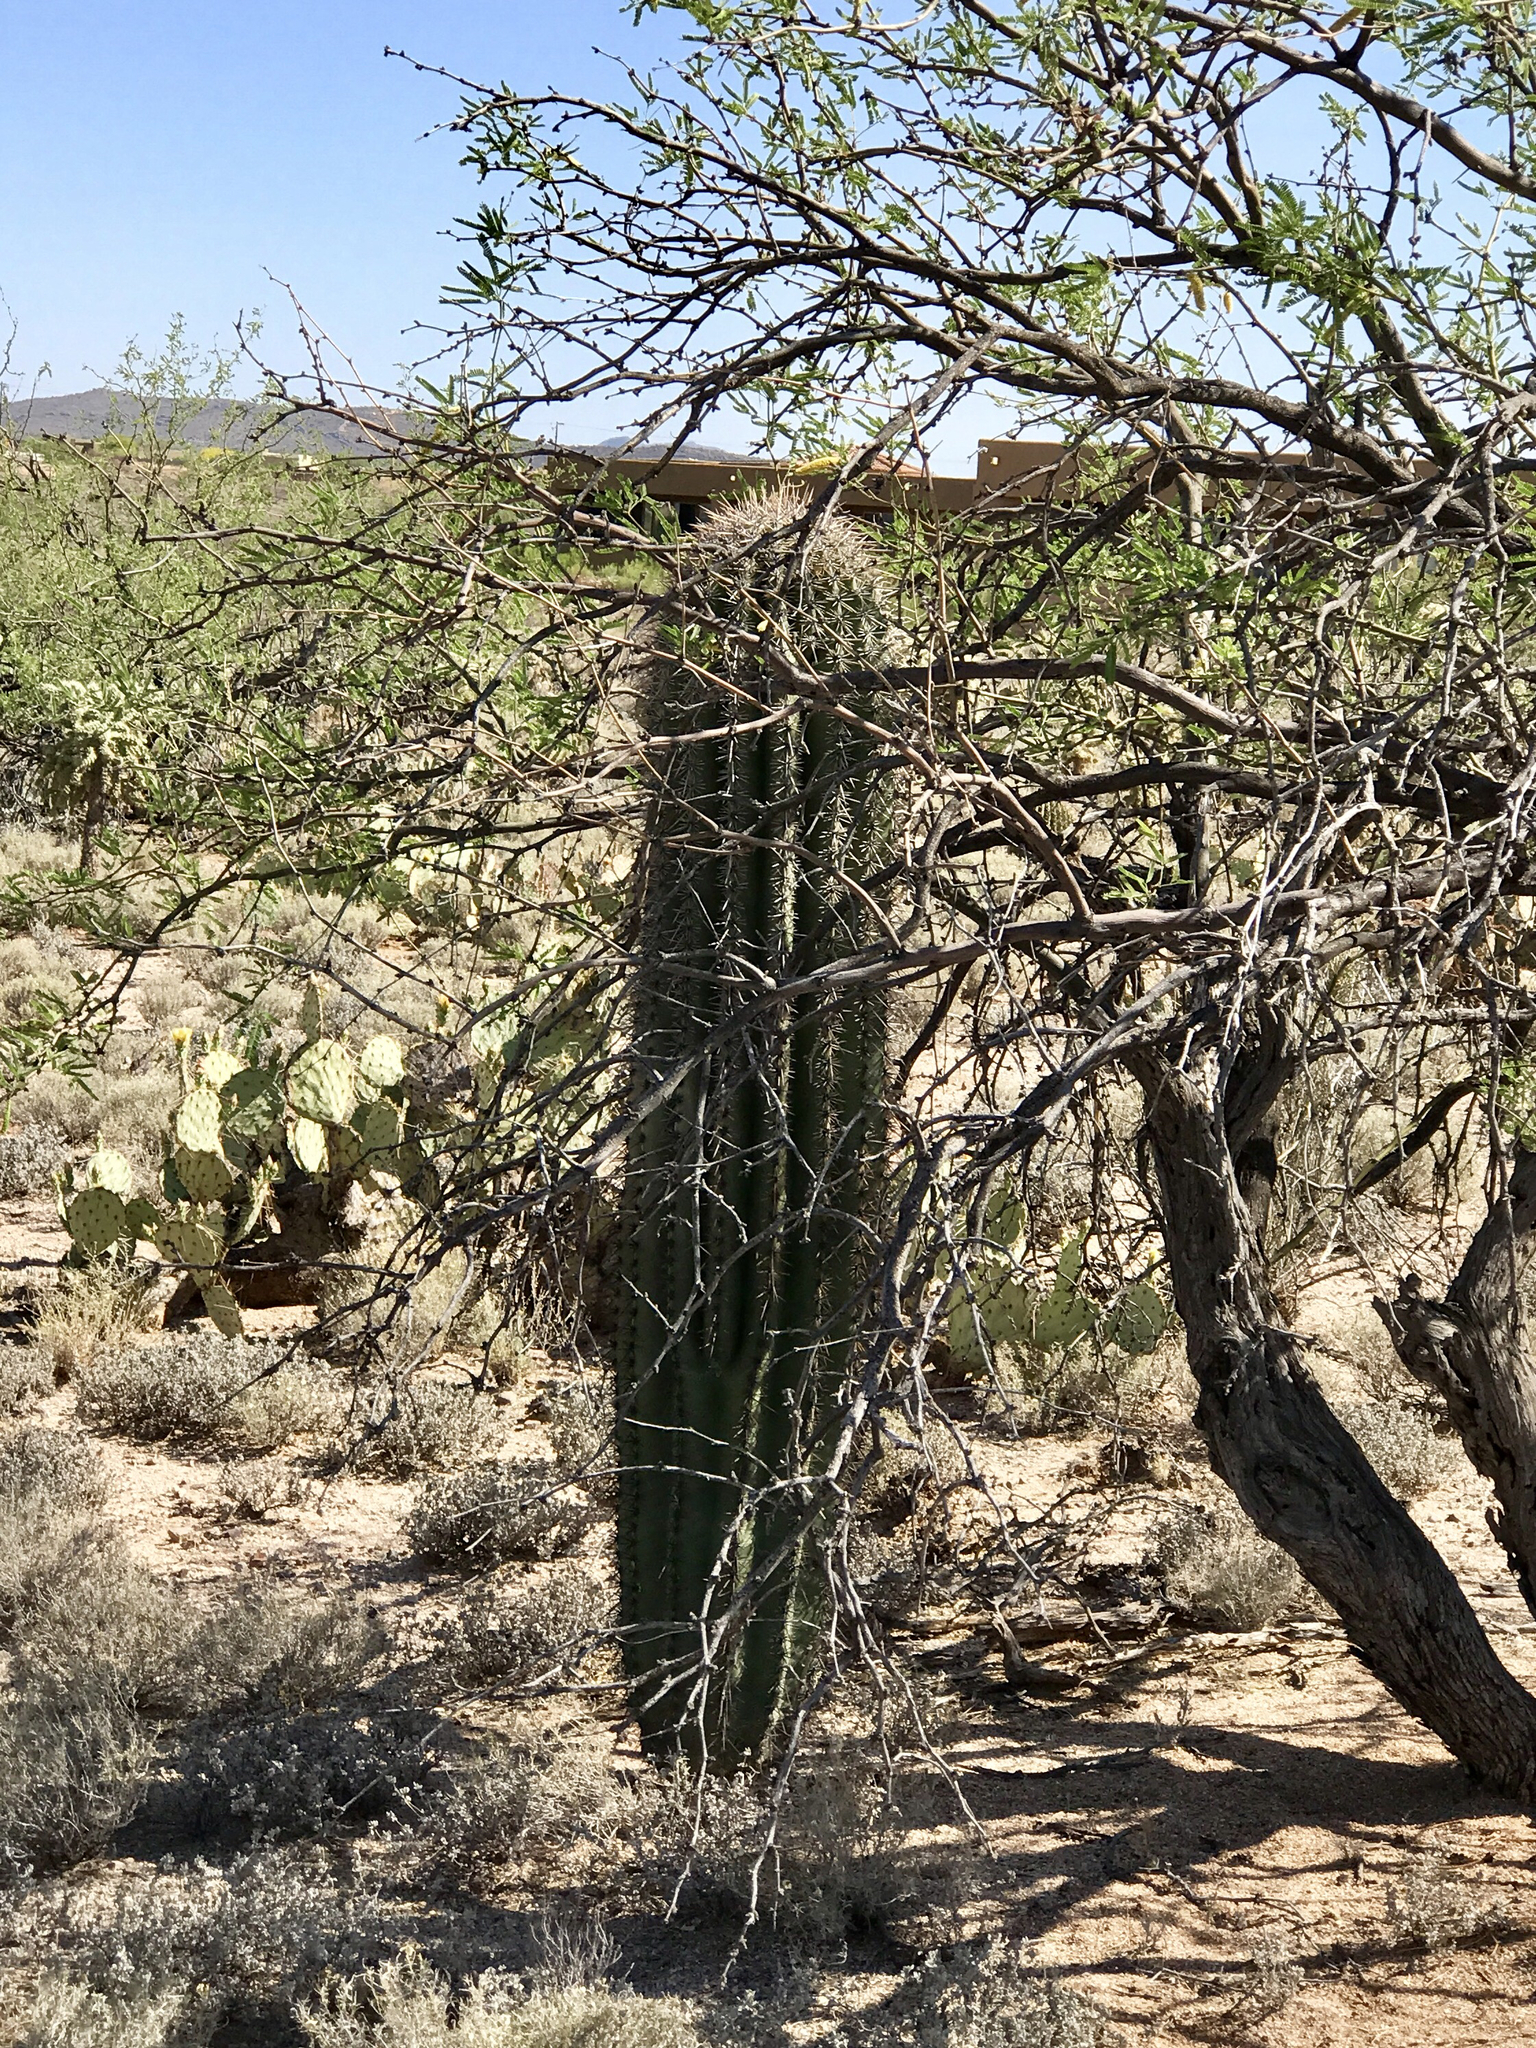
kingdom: Plantae
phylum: Tracheophyta
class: Magnoliopsida
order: Caryophyllales
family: Cactaceae
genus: Carnegiea
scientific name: Carnegiea gigantea
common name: Saguaro
